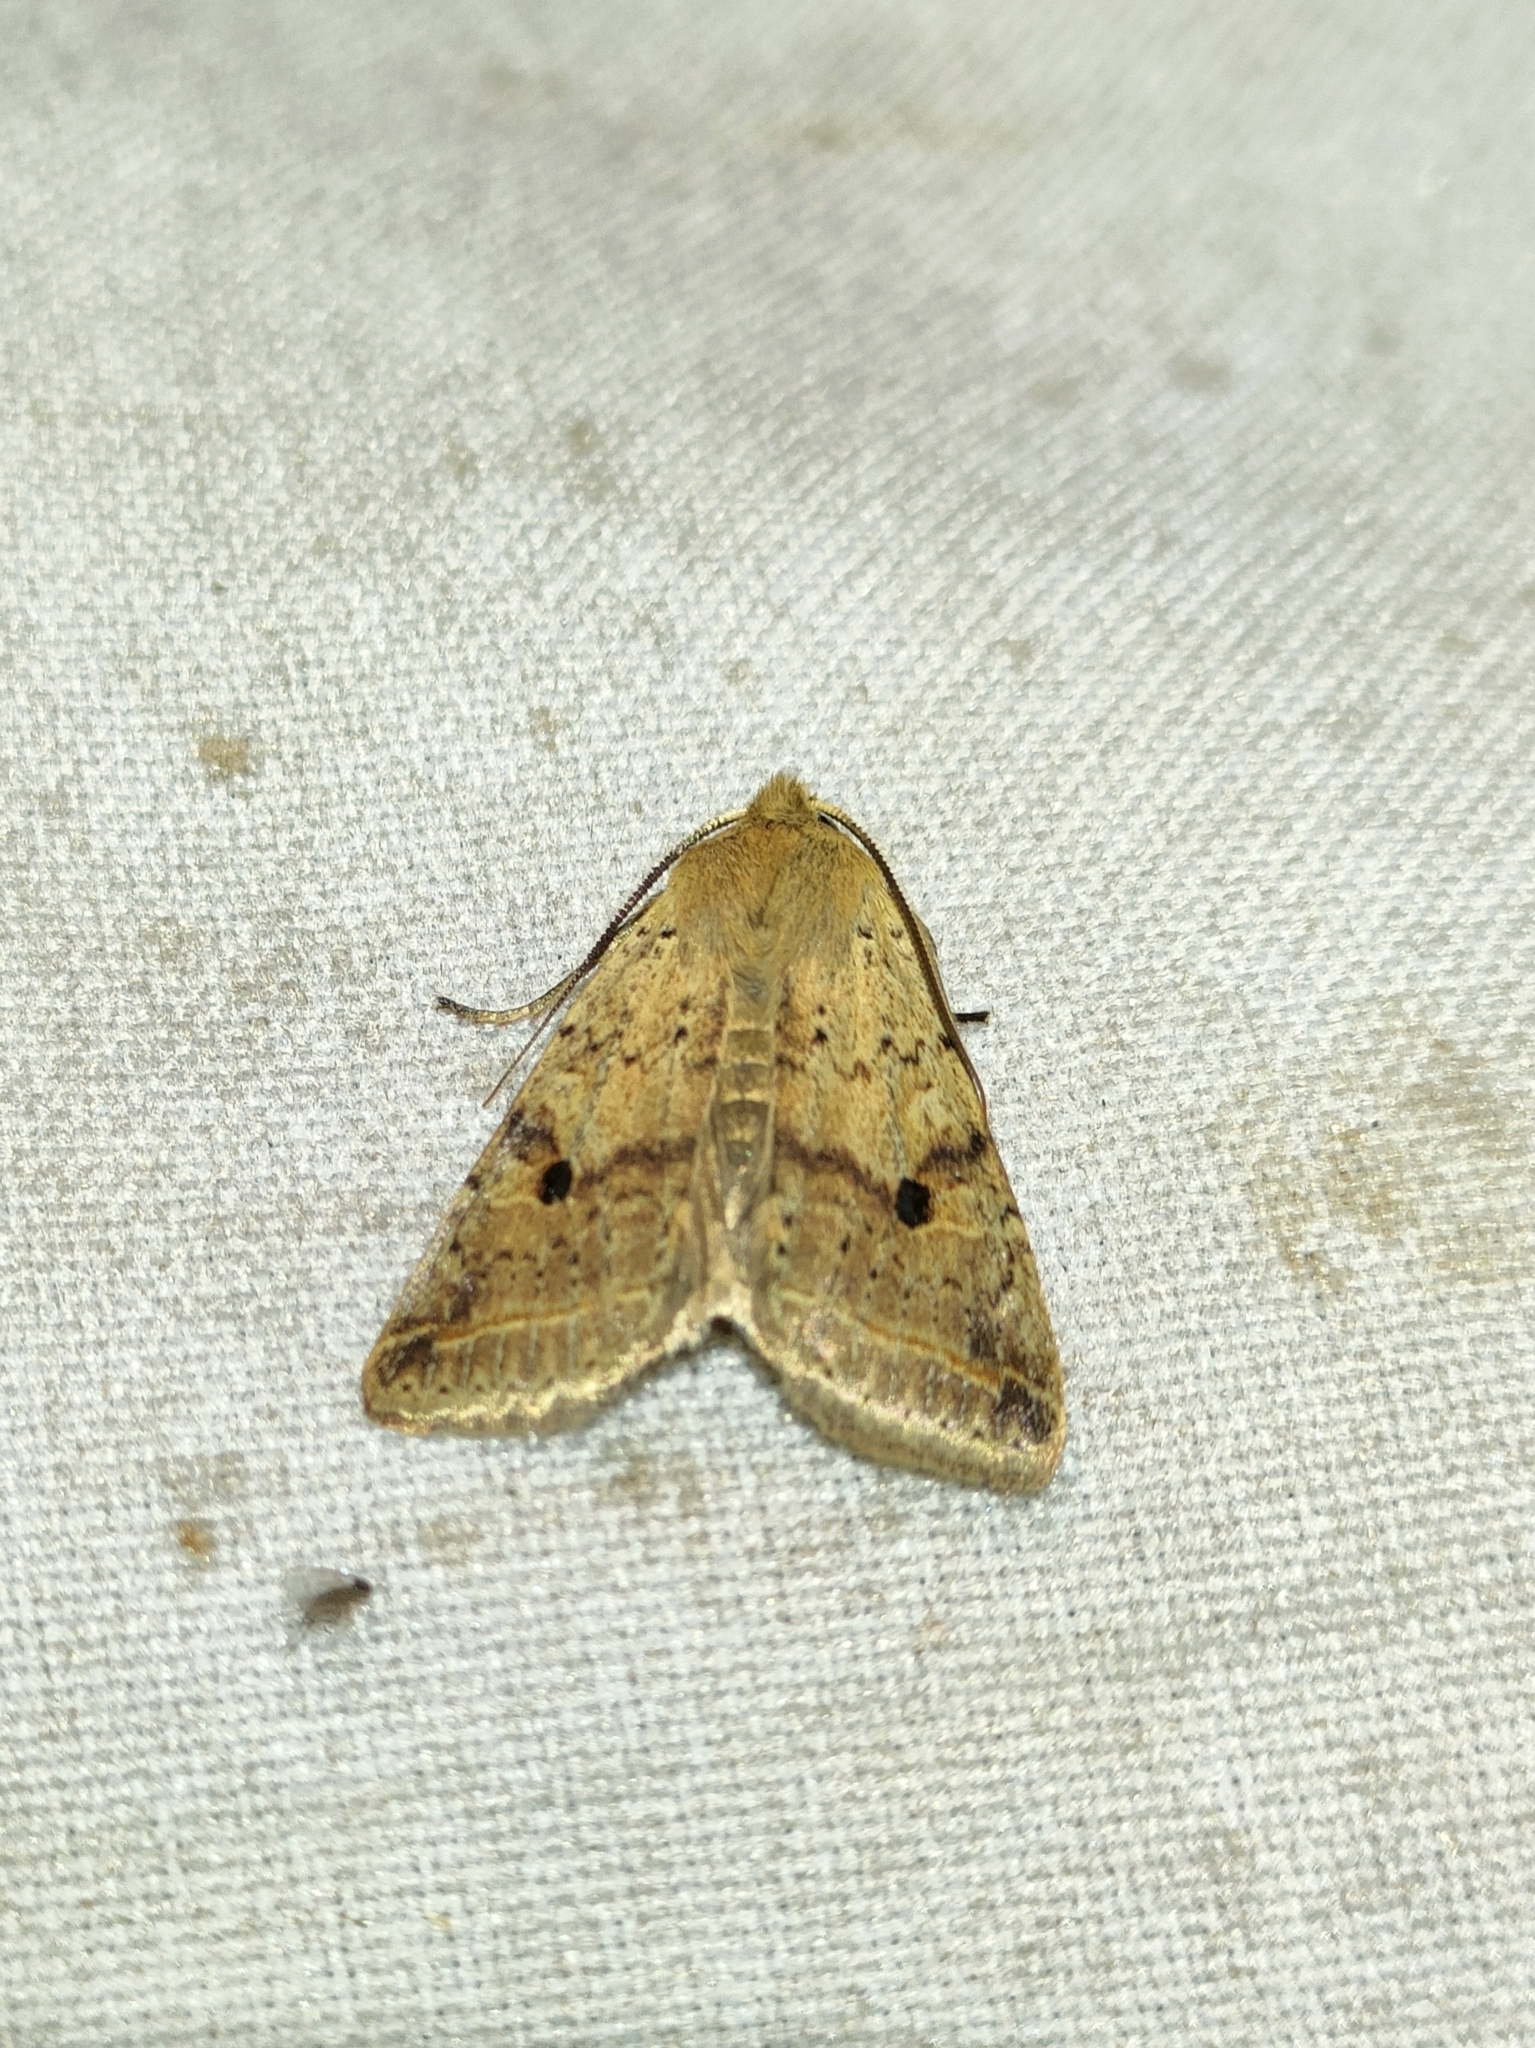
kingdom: Animalia
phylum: Arthropoda
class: Insecta
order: Lepidoptera
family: Noctuidae
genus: Agrochola
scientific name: Agrochola blidaensis
